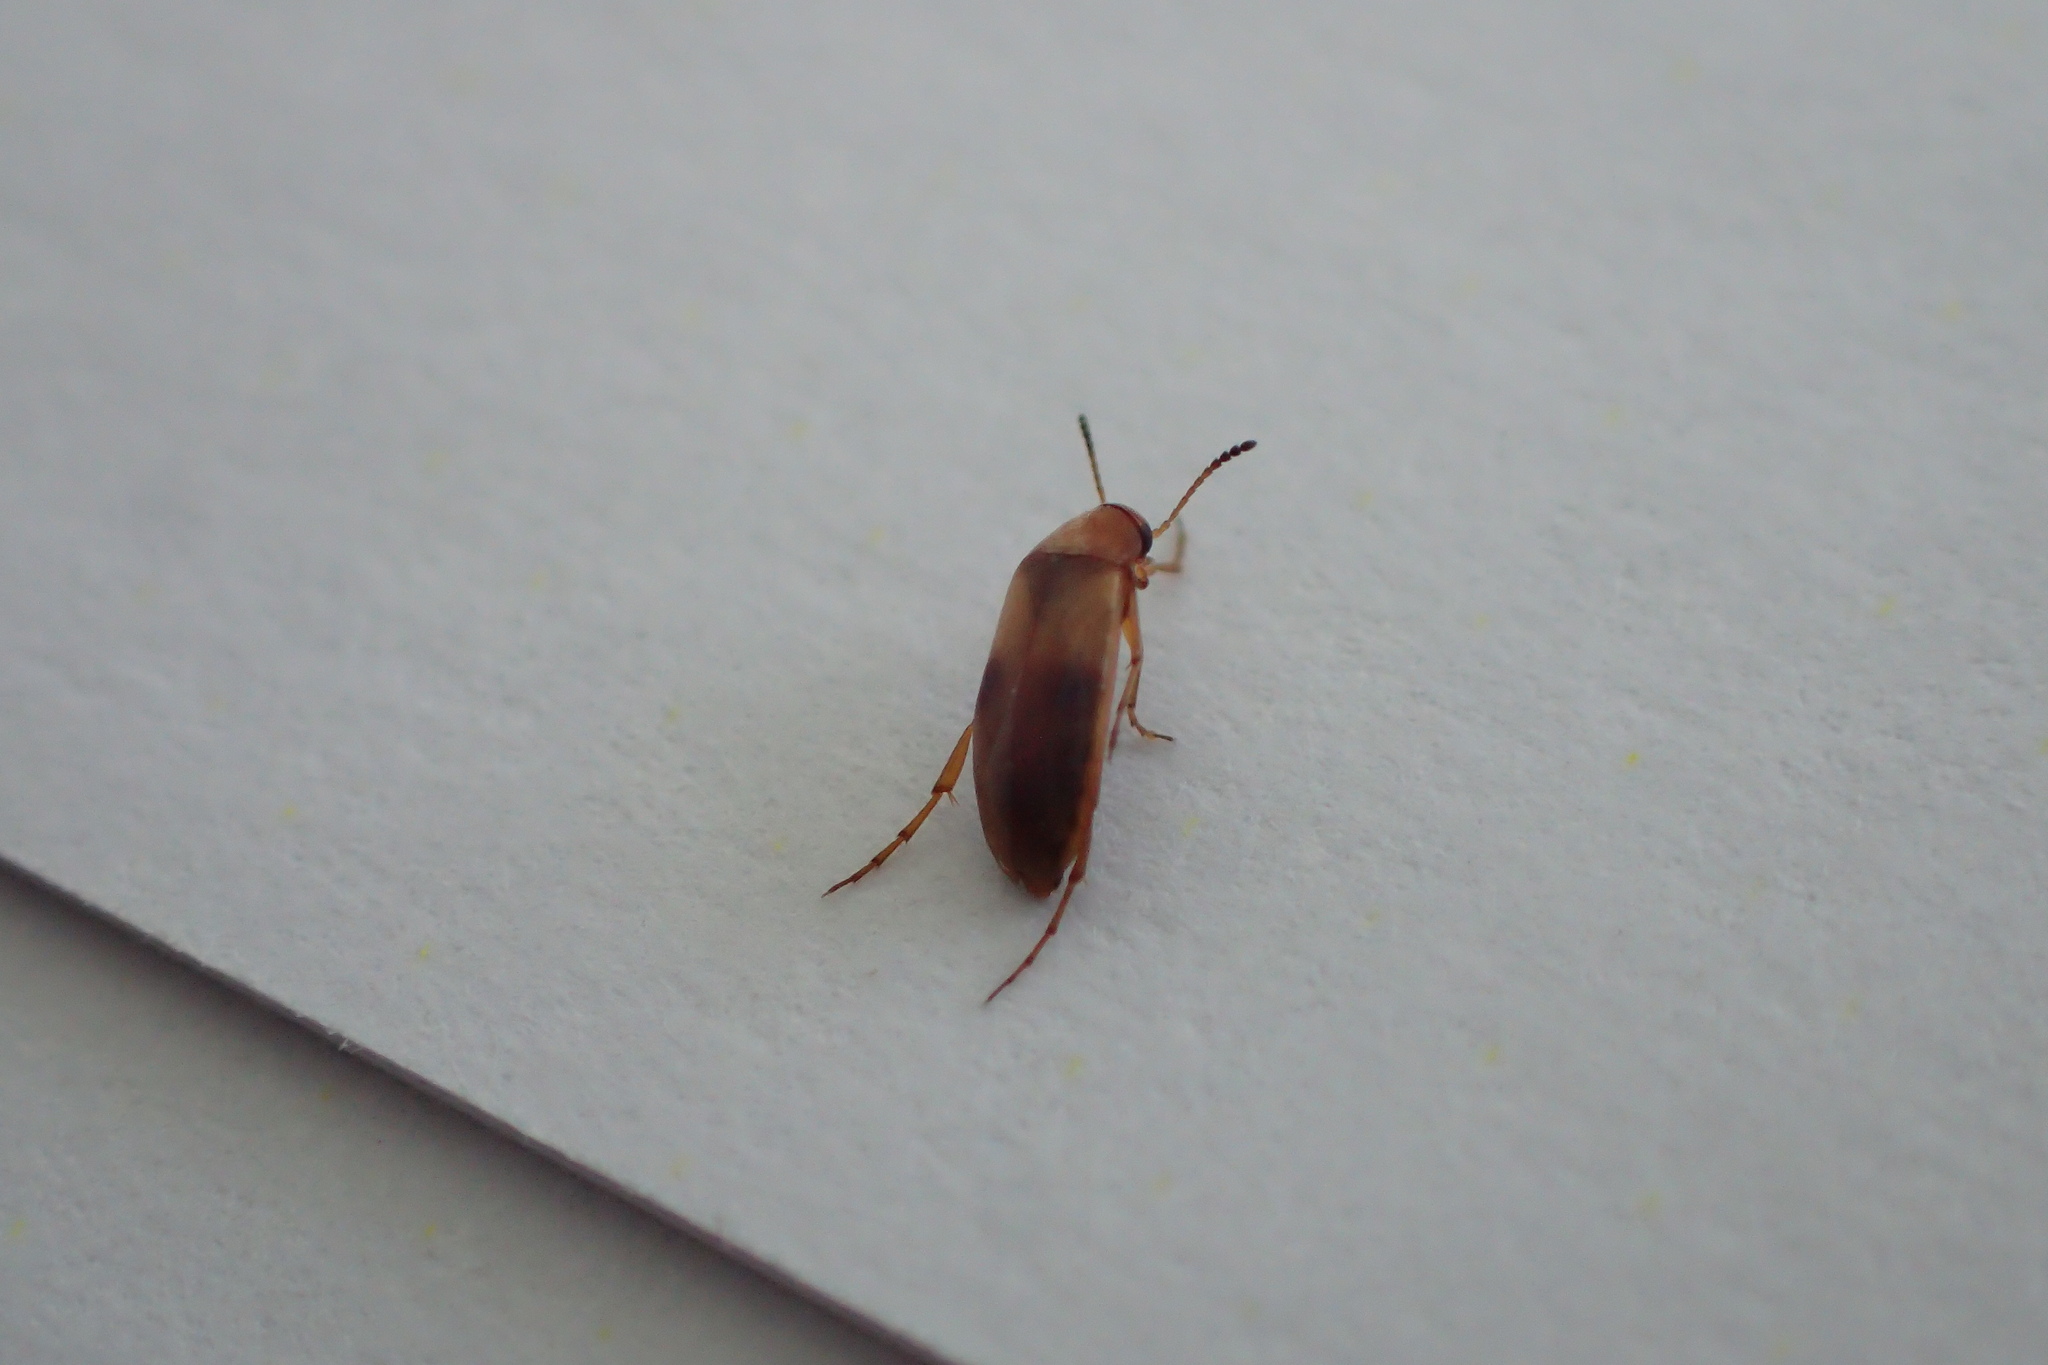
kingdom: Animalia
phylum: Arthropoda
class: Insecta
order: Coleoptera
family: Scraptiidae
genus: Anaspis
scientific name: Anaspis maculata
